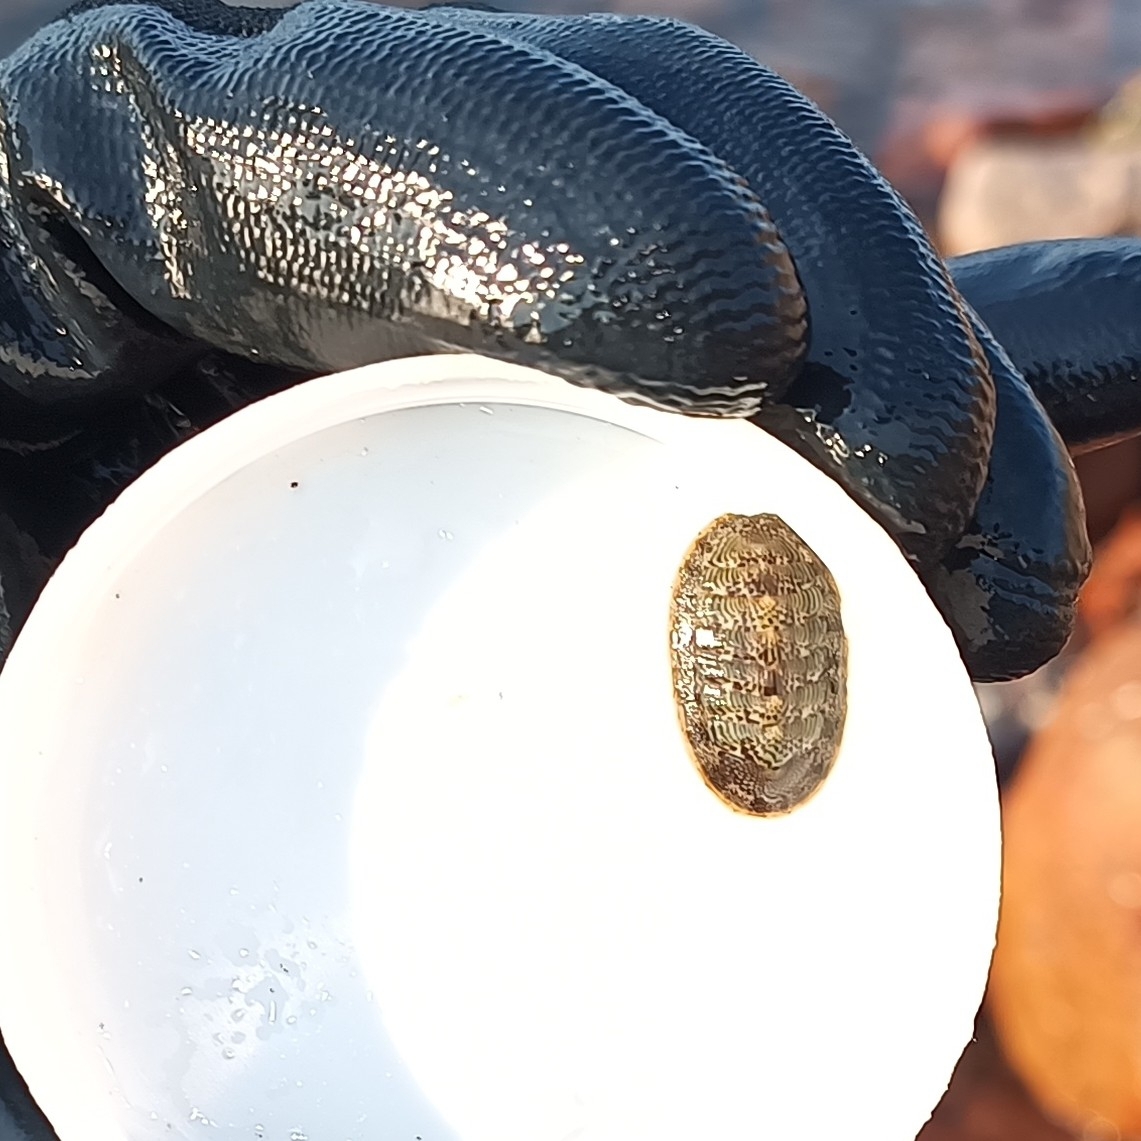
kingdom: Animalia
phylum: Mollusca
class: Polyplacophora
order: Chitonida
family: Ischnochitonidae
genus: Ischnochiton
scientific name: Ischnochiton muscarius
